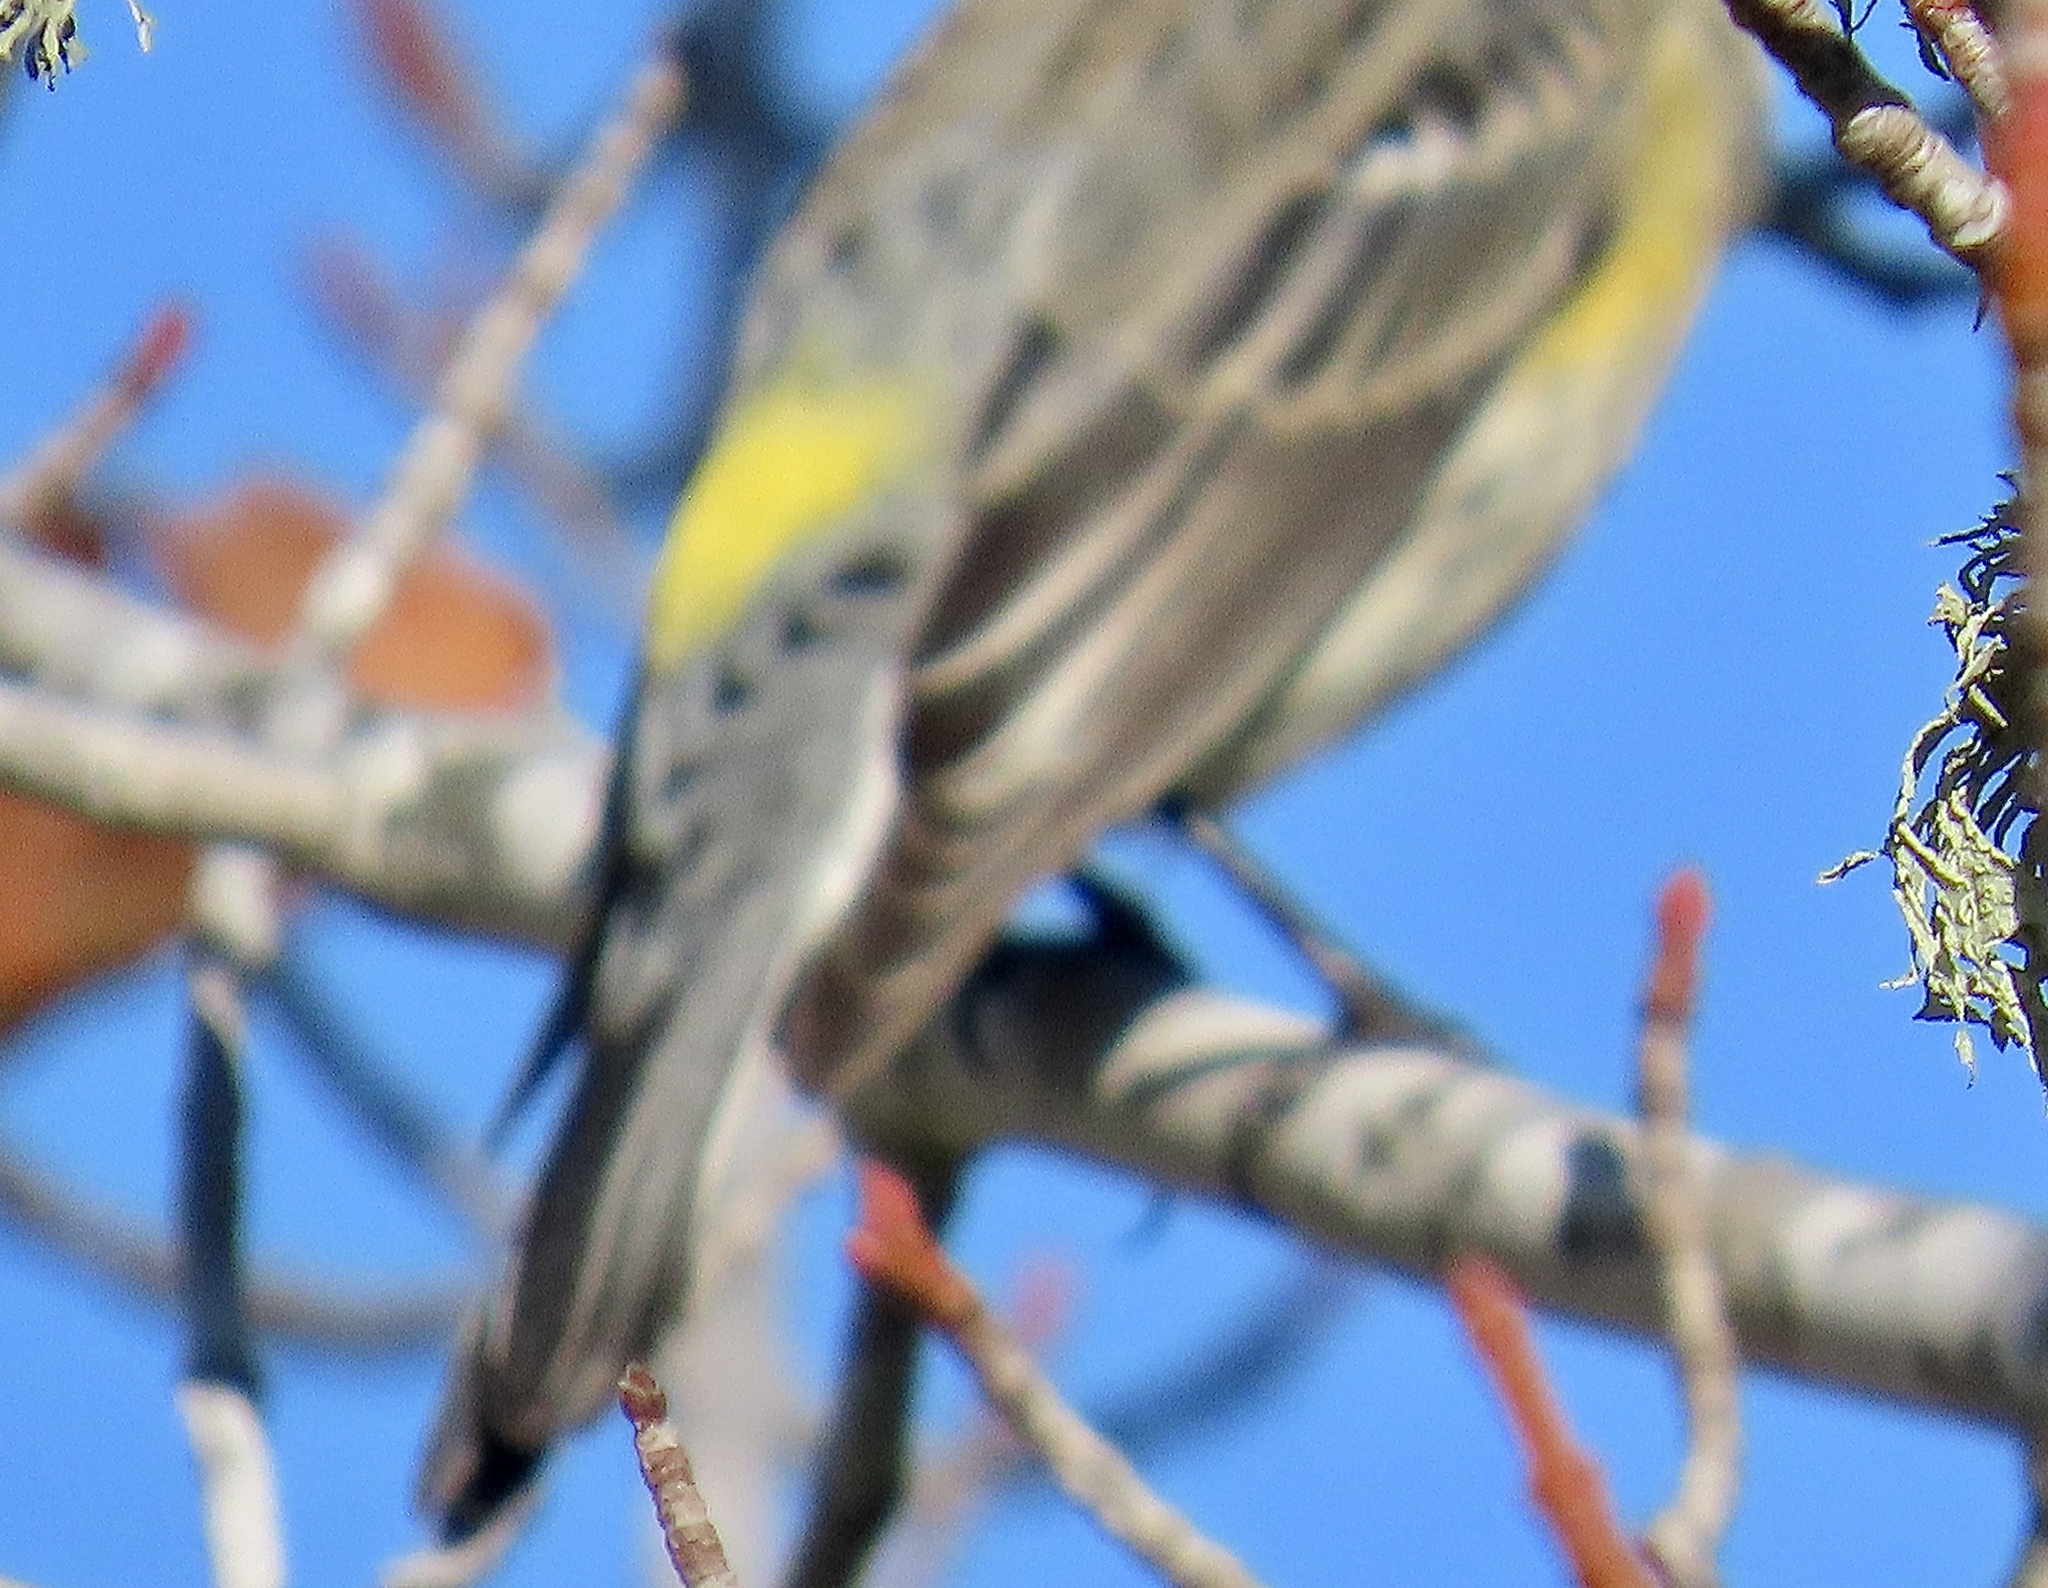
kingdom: Animalia
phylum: Chordata
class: Aves
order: Passeriformes
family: Parulidae
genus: Setophaga
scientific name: Setophaga coronata
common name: Myrtle warbler
